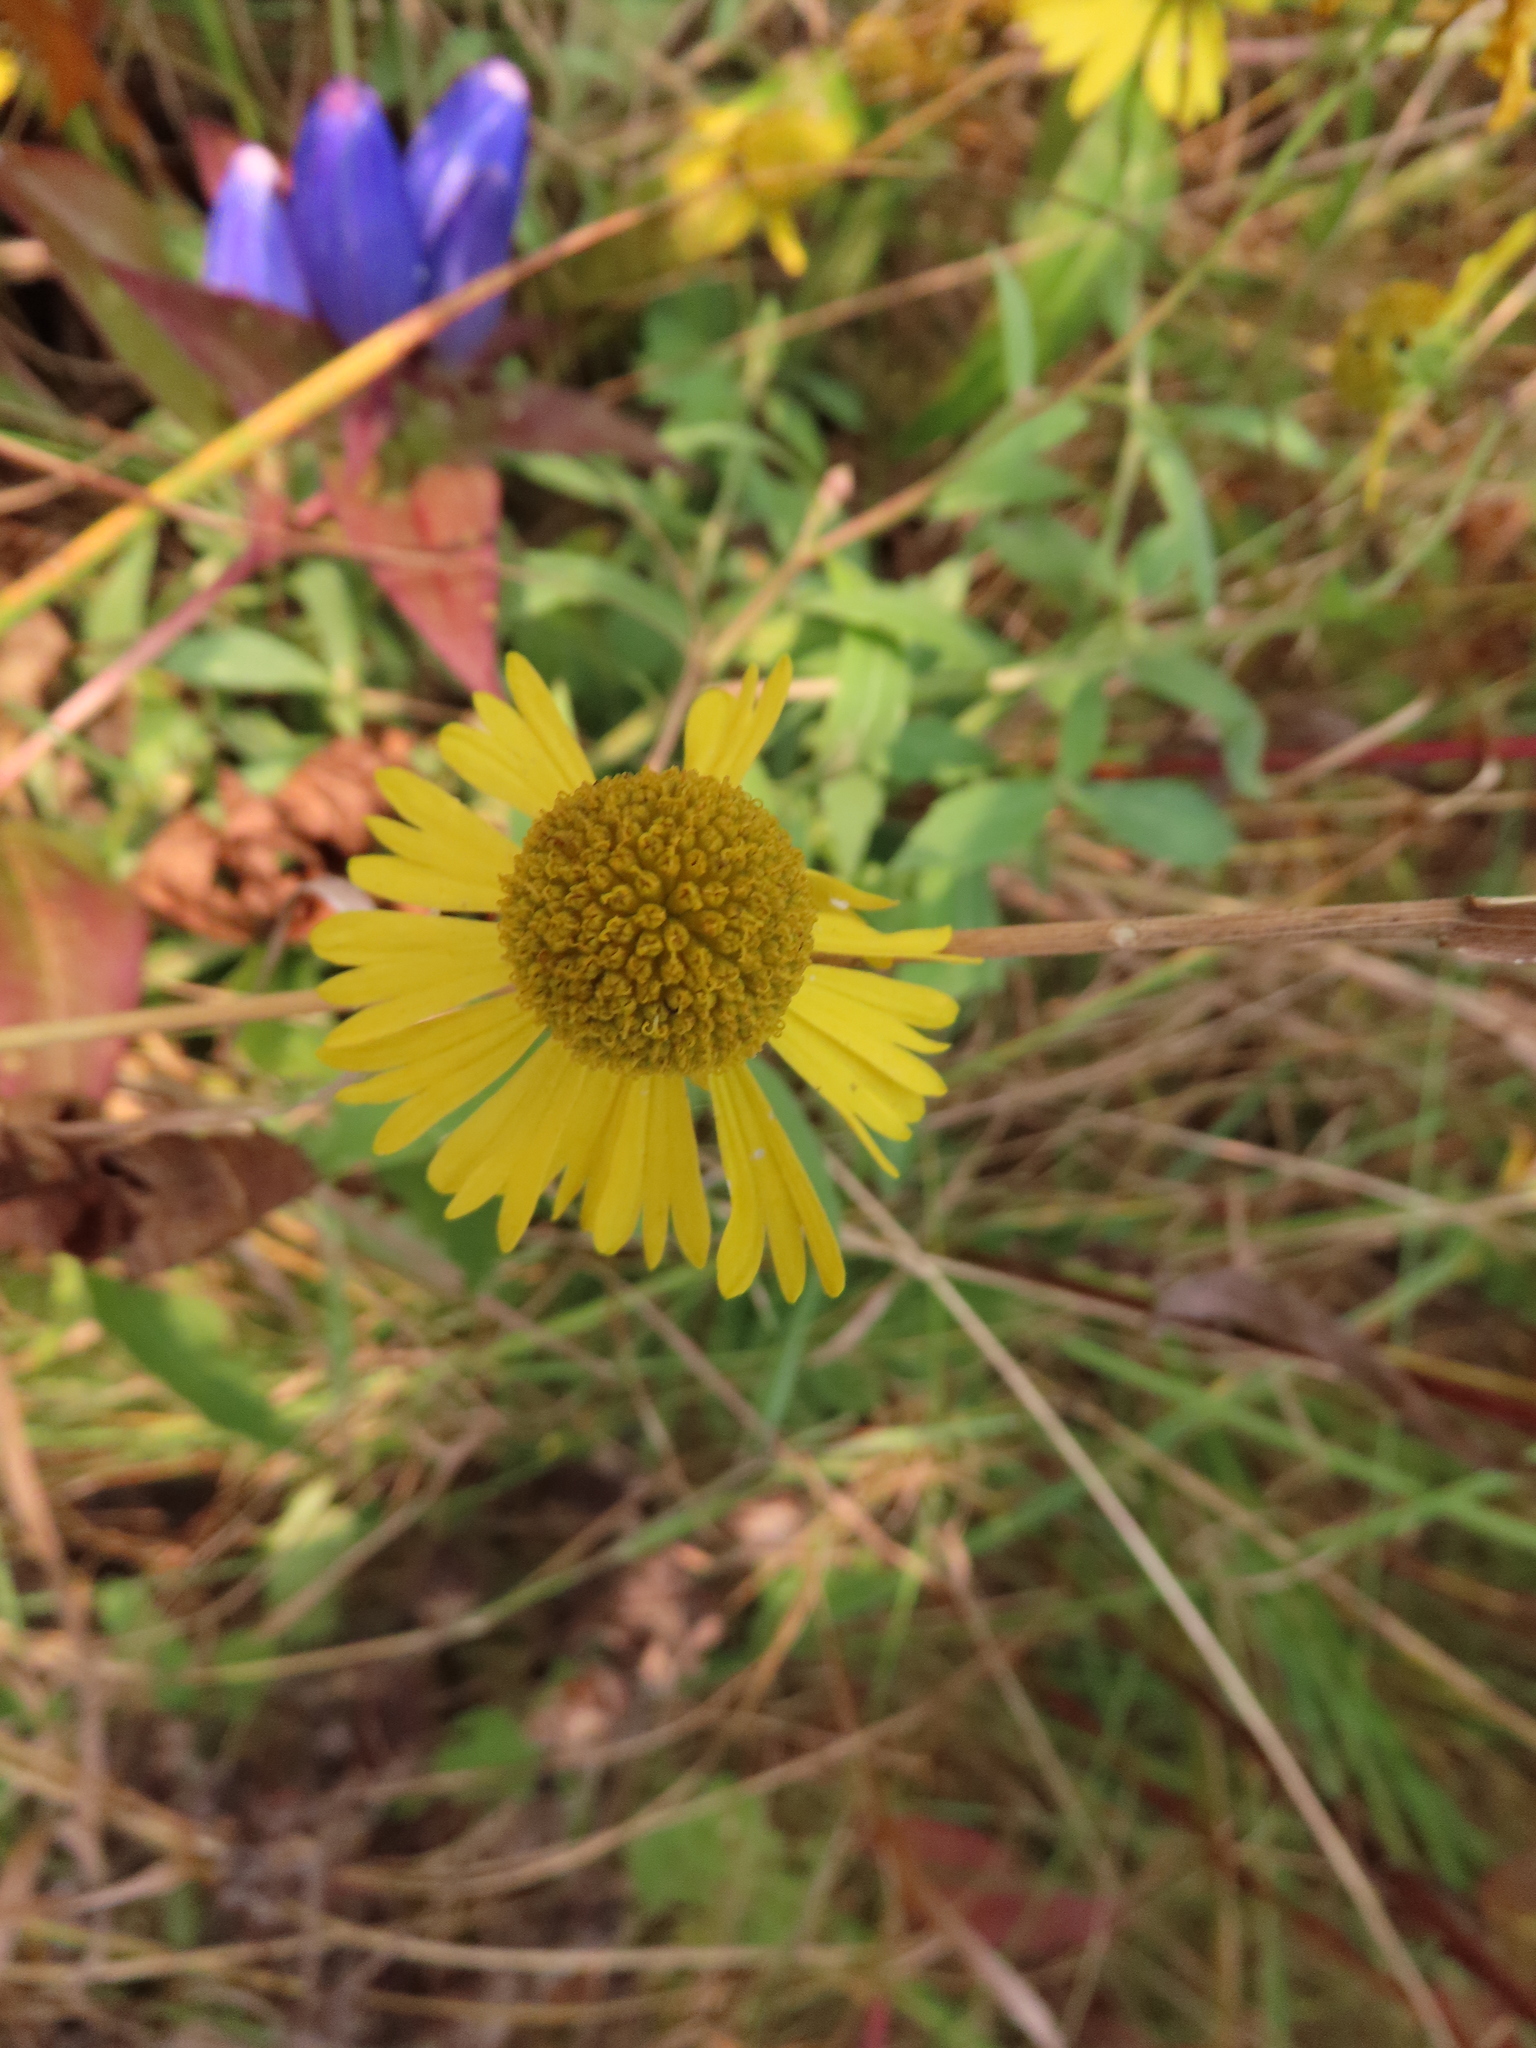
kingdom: Plantae
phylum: Tracheophyta
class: Magnoliopsida
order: Asterales
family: Asteraceae
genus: Helenium
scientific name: Helenium autumnale
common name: Sneezeweed
